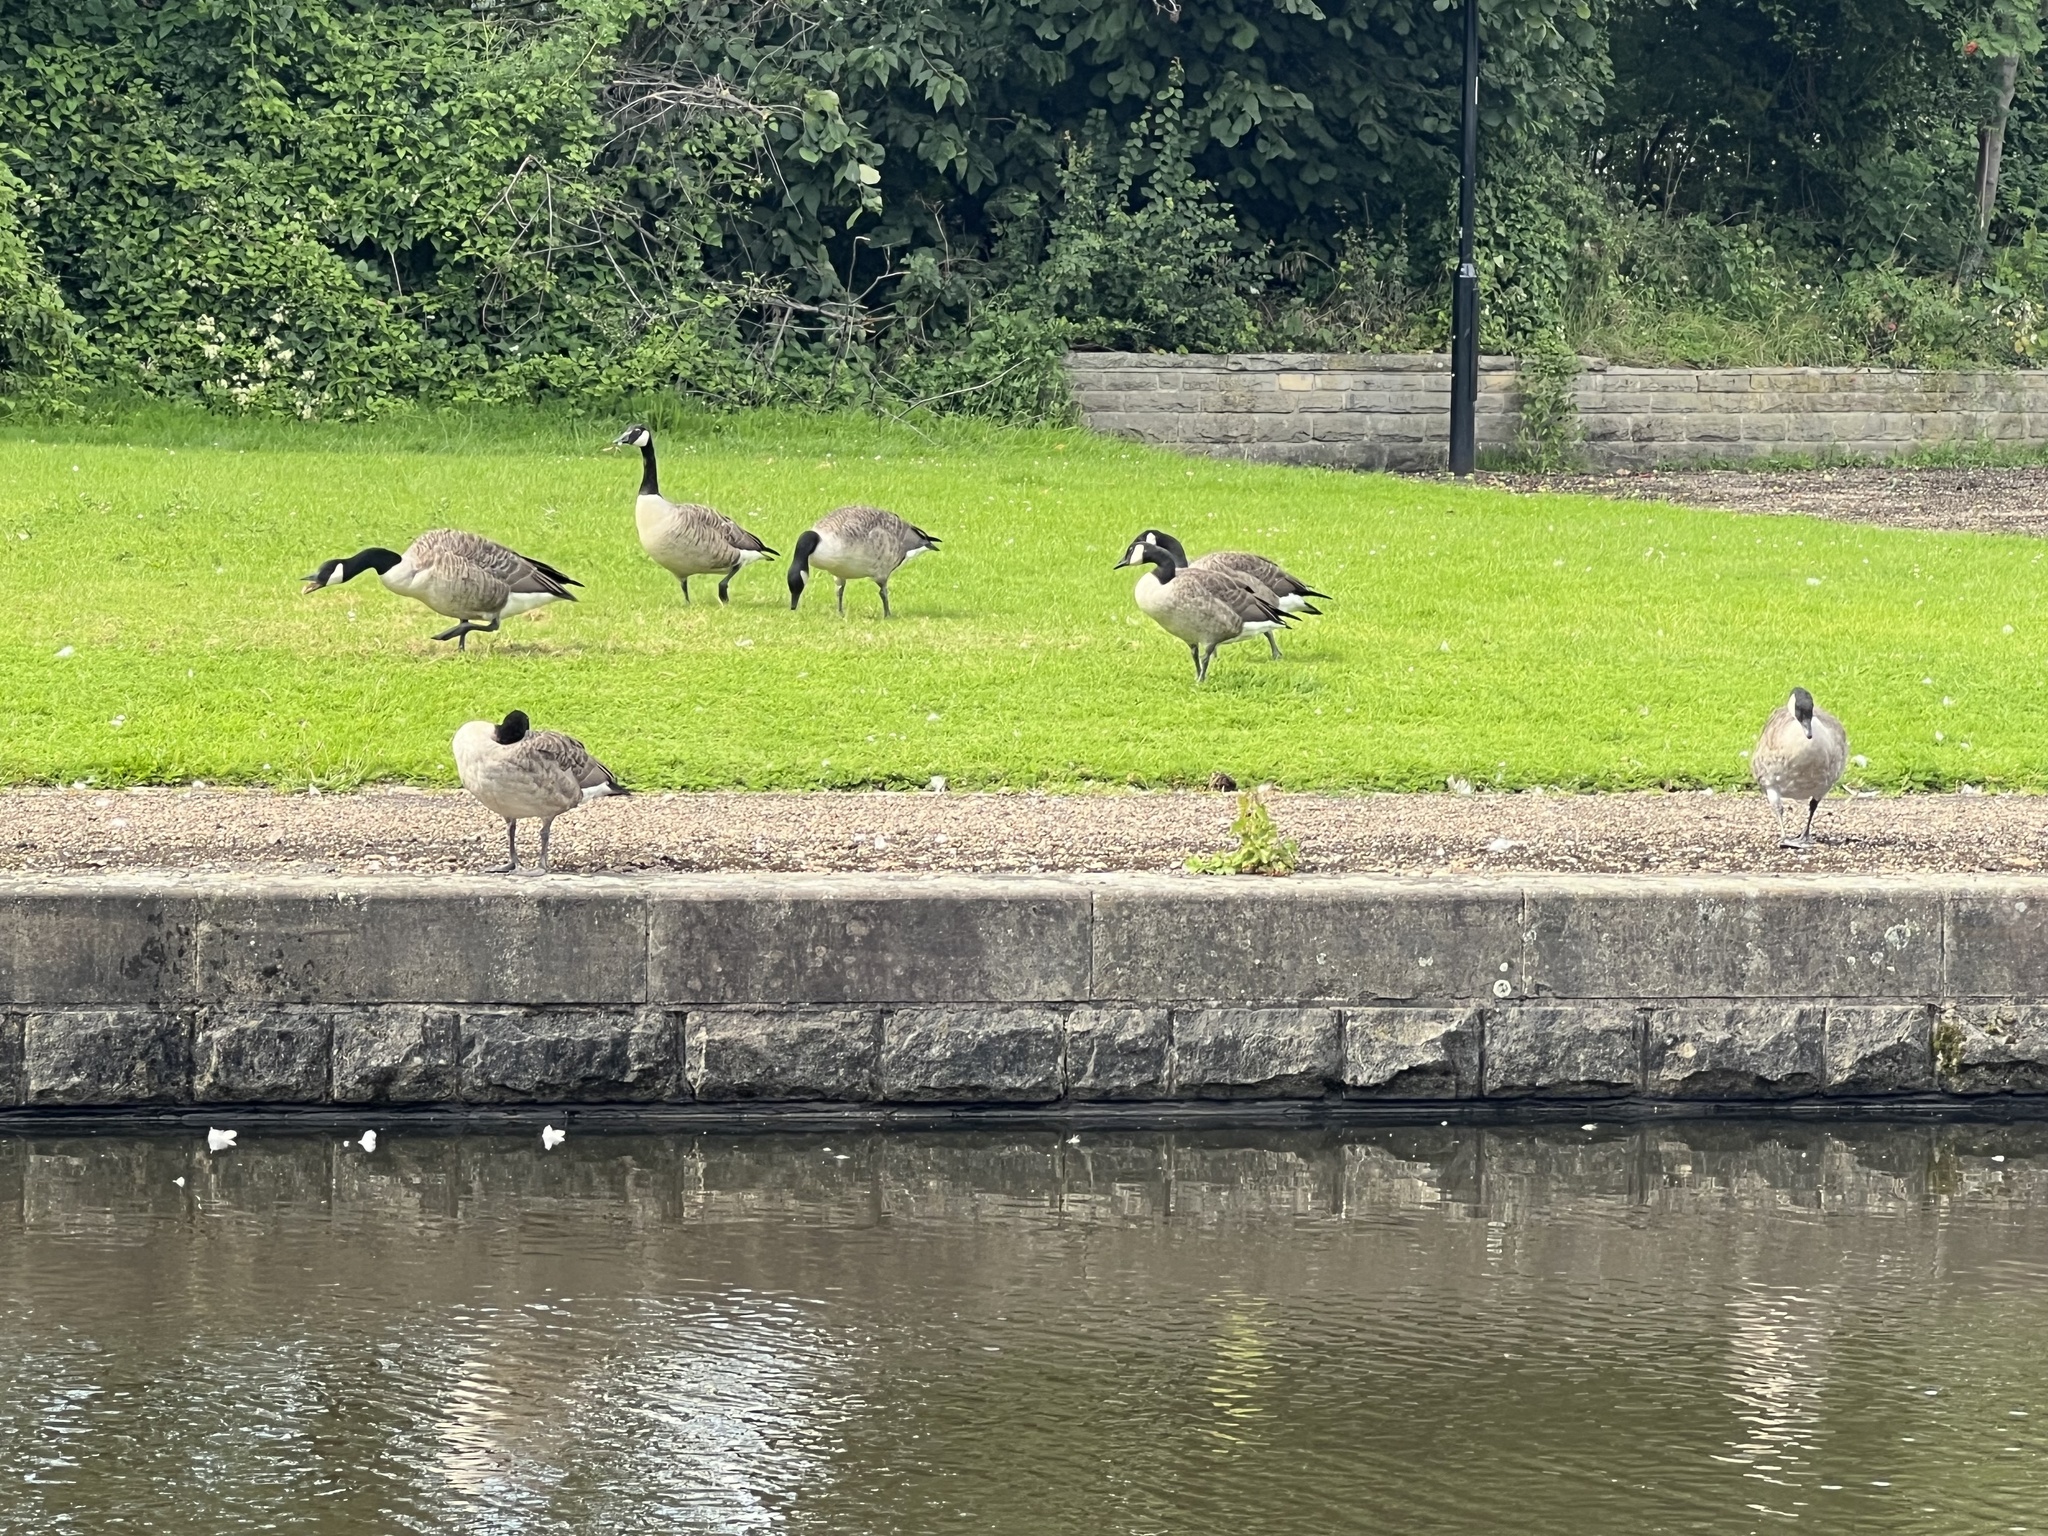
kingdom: Animalia
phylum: Chordata
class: Aves
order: Anseriformes
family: Anatidae
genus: Branta
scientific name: Branta canadensis
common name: Canada goose
